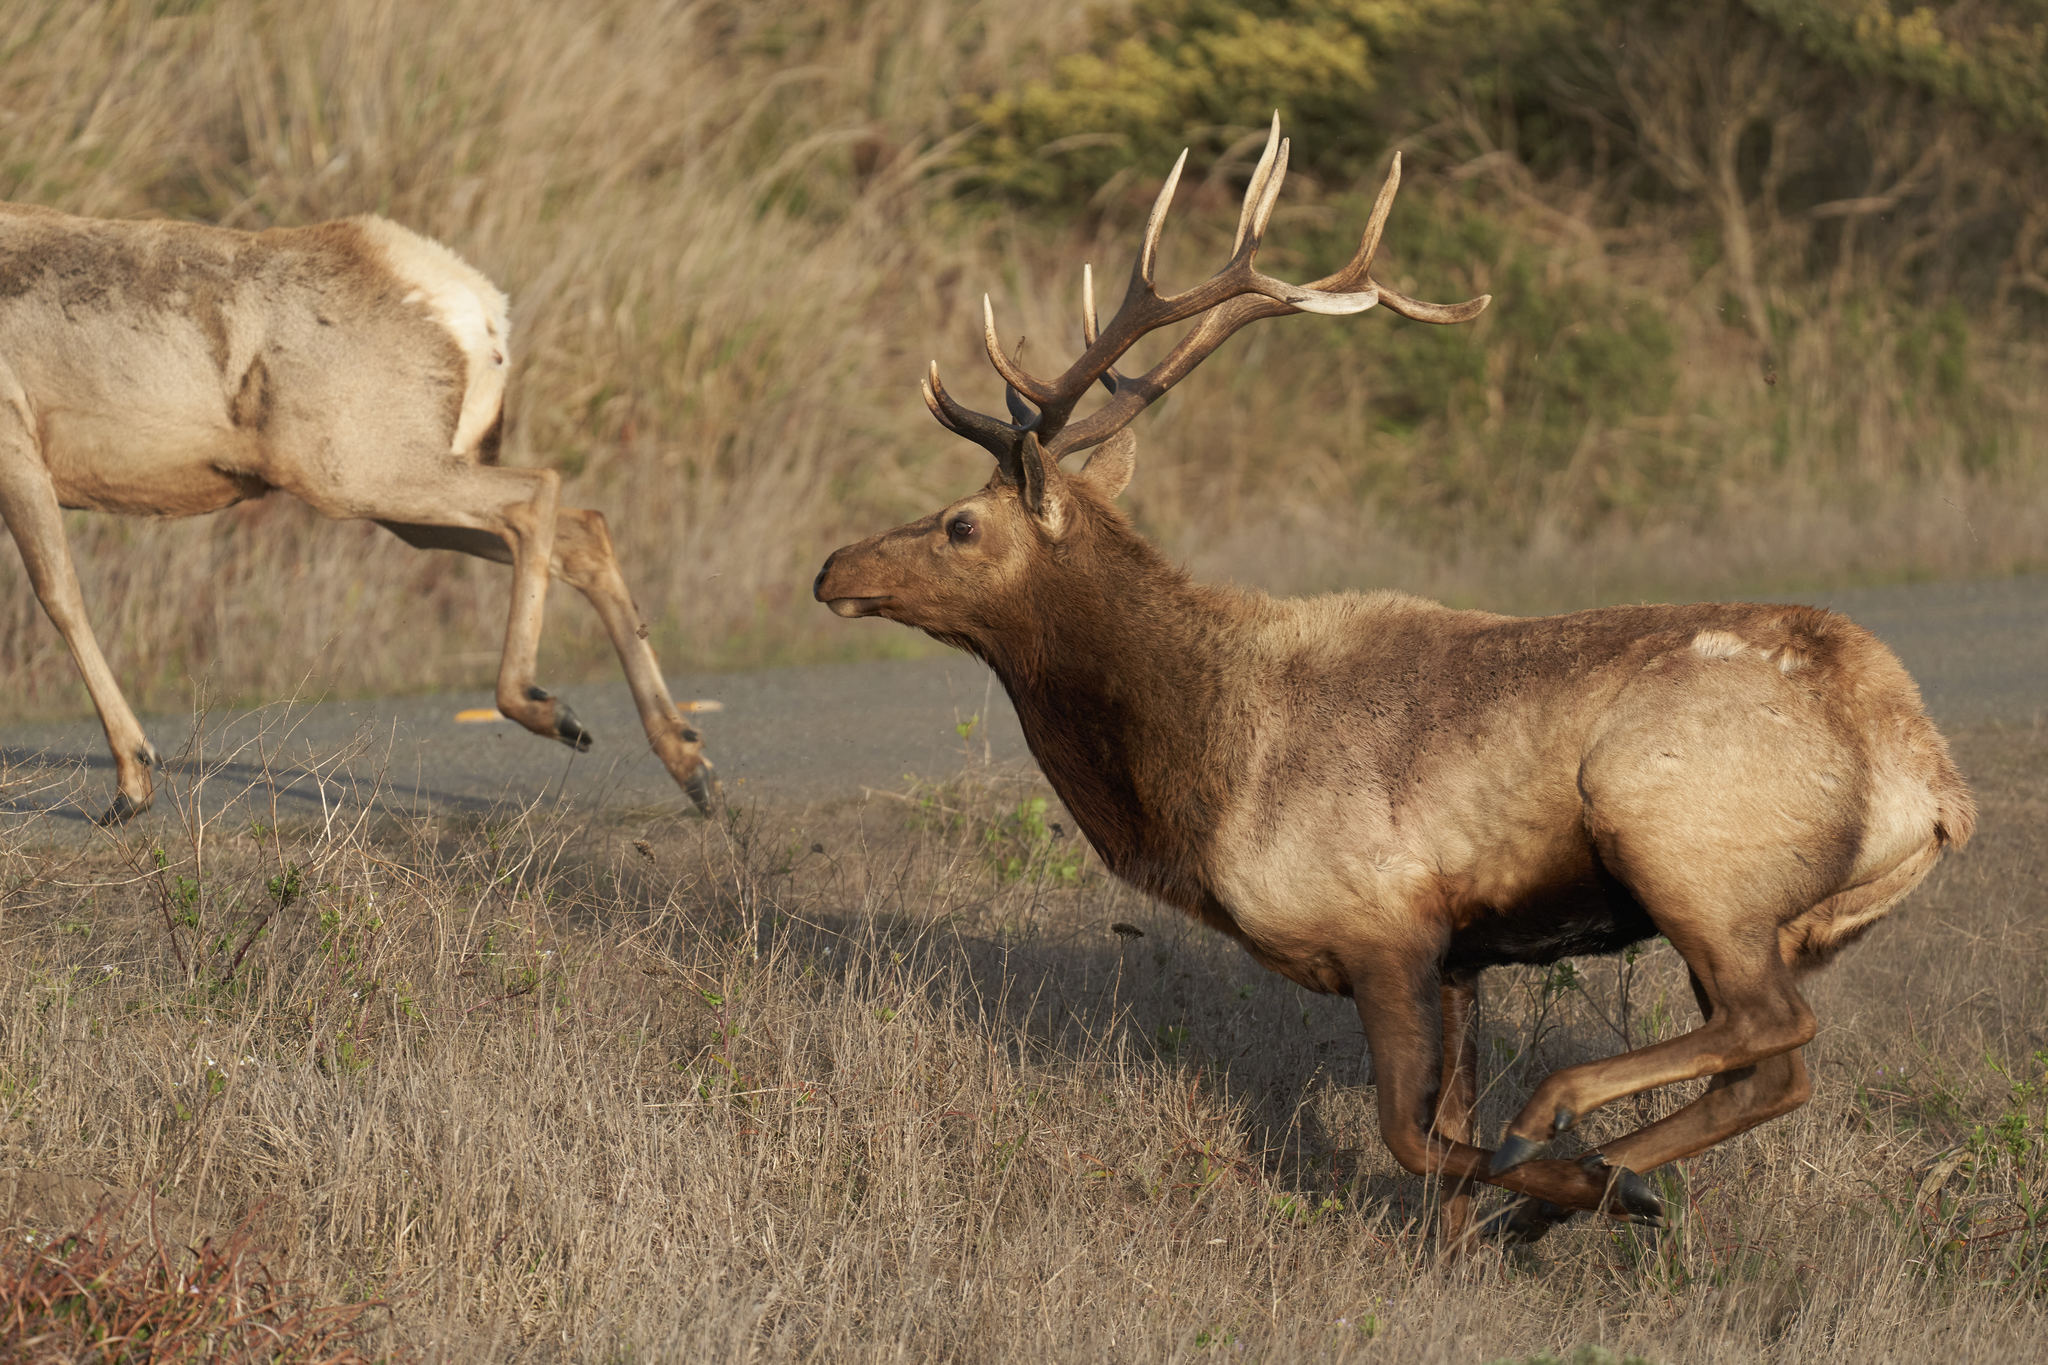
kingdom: Animalia
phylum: Chordata
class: Mammalia
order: Artiodactyla
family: Cervidae
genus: Cervus
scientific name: Cervus elaphus
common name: Red deer
